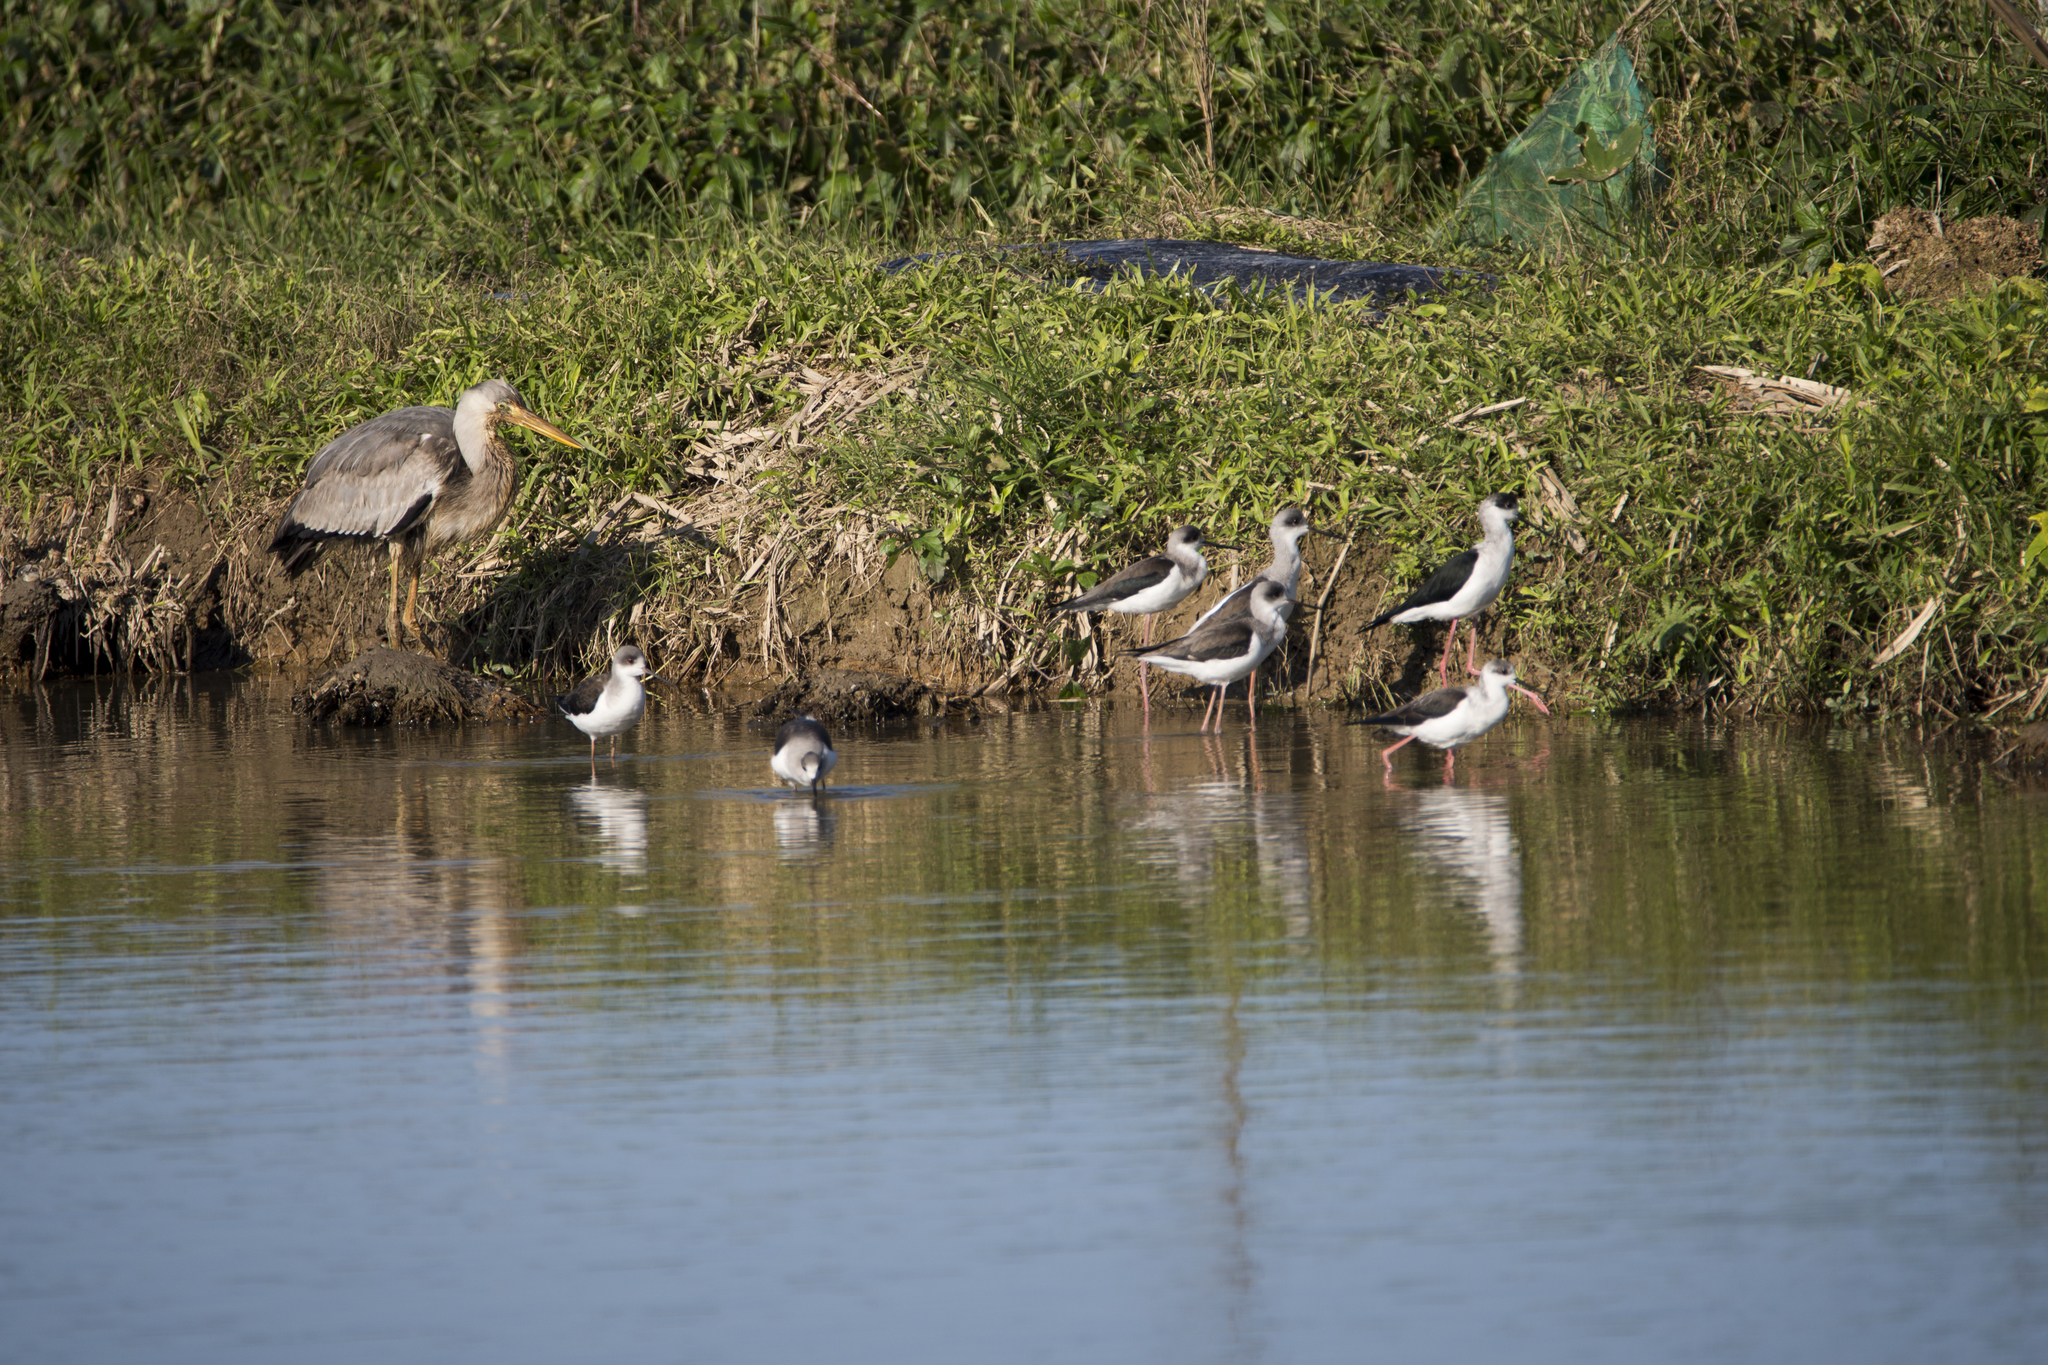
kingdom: Animalia
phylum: Chordata
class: Aves
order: Pelecaniformes
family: Ardeidae
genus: Ardea
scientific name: Ardea cinerea
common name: Grey heron
